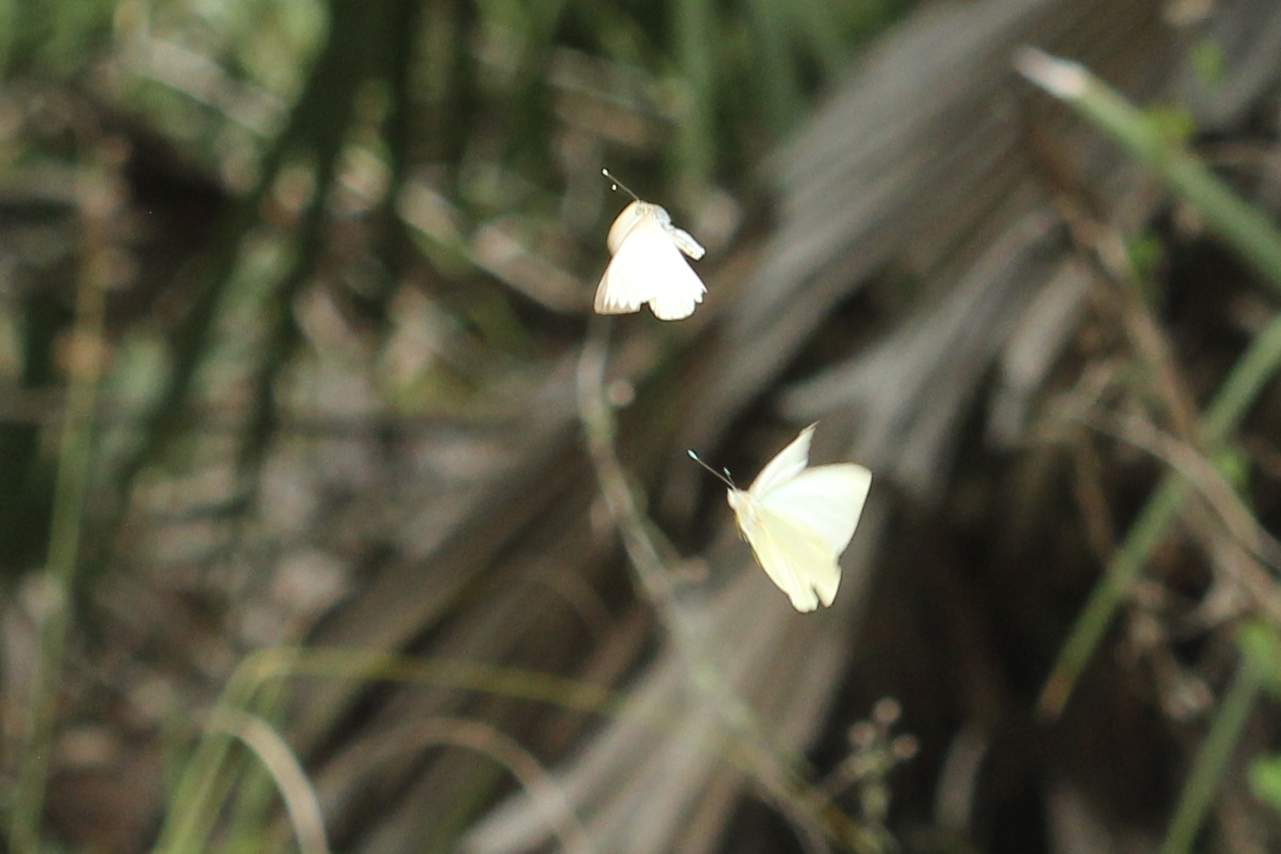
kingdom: Animalia
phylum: Arthropoda
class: Insecta
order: Lepidoptera
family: Pieridae
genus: Ascia
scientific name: Ascia monuste
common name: Great southern white
